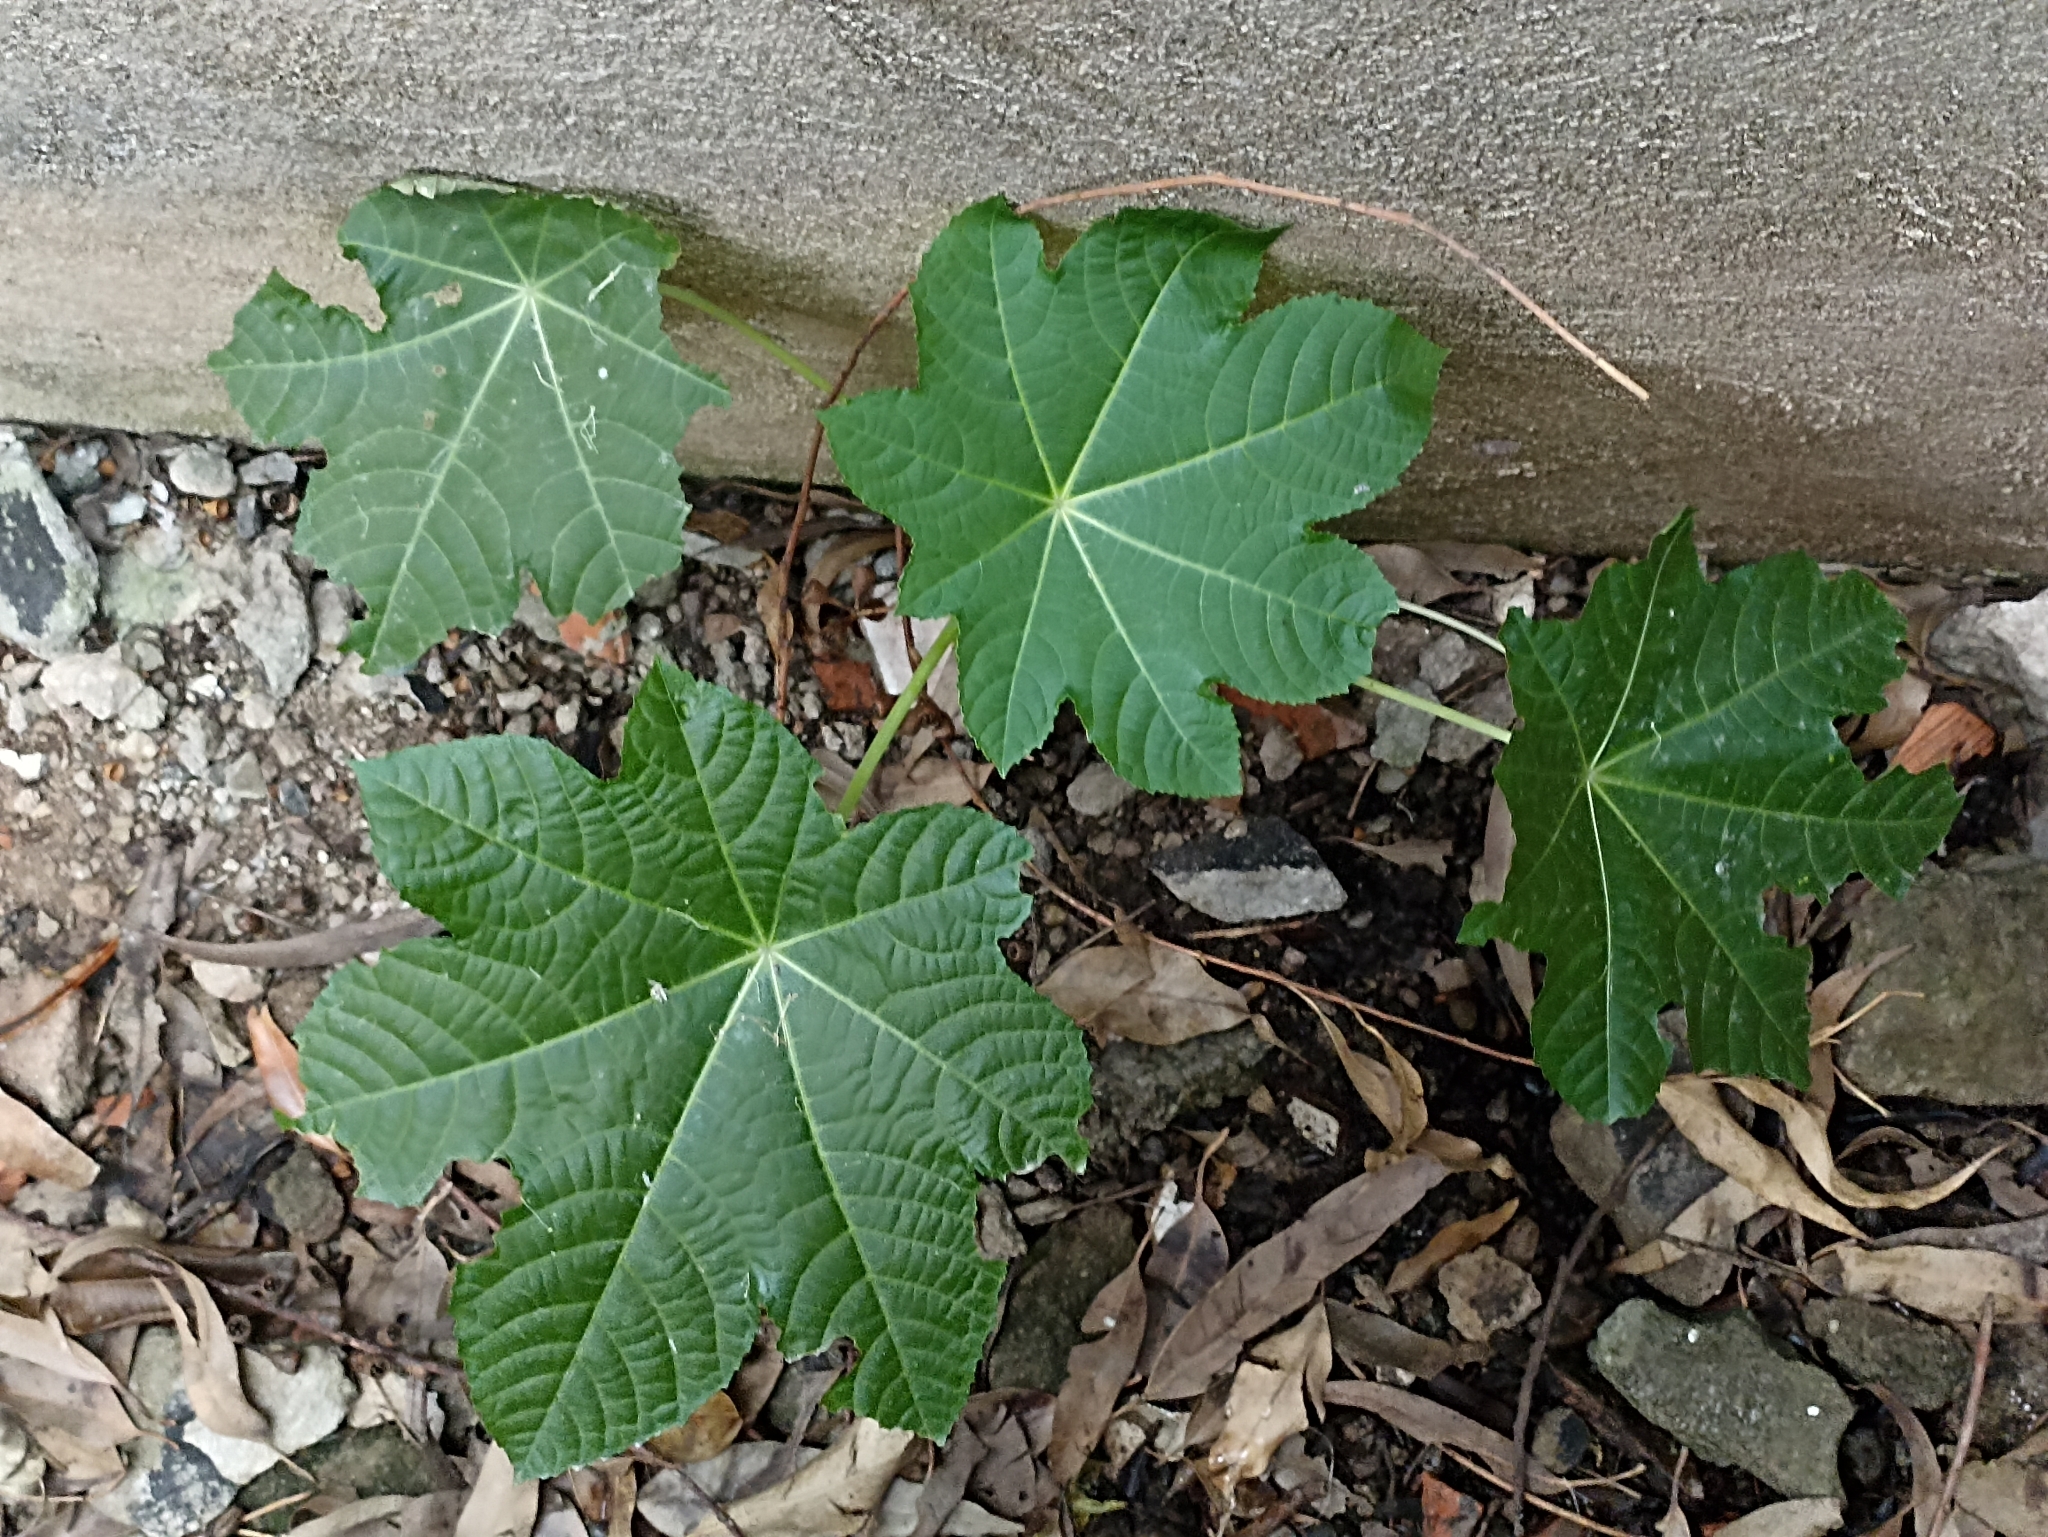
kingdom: Plantae
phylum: Tracheophyta
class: Magnoliopsida
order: Malpighiales
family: Euphorbiaceae
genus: Ricinus
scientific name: Ricinus communis
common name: Castor-oil-plant
